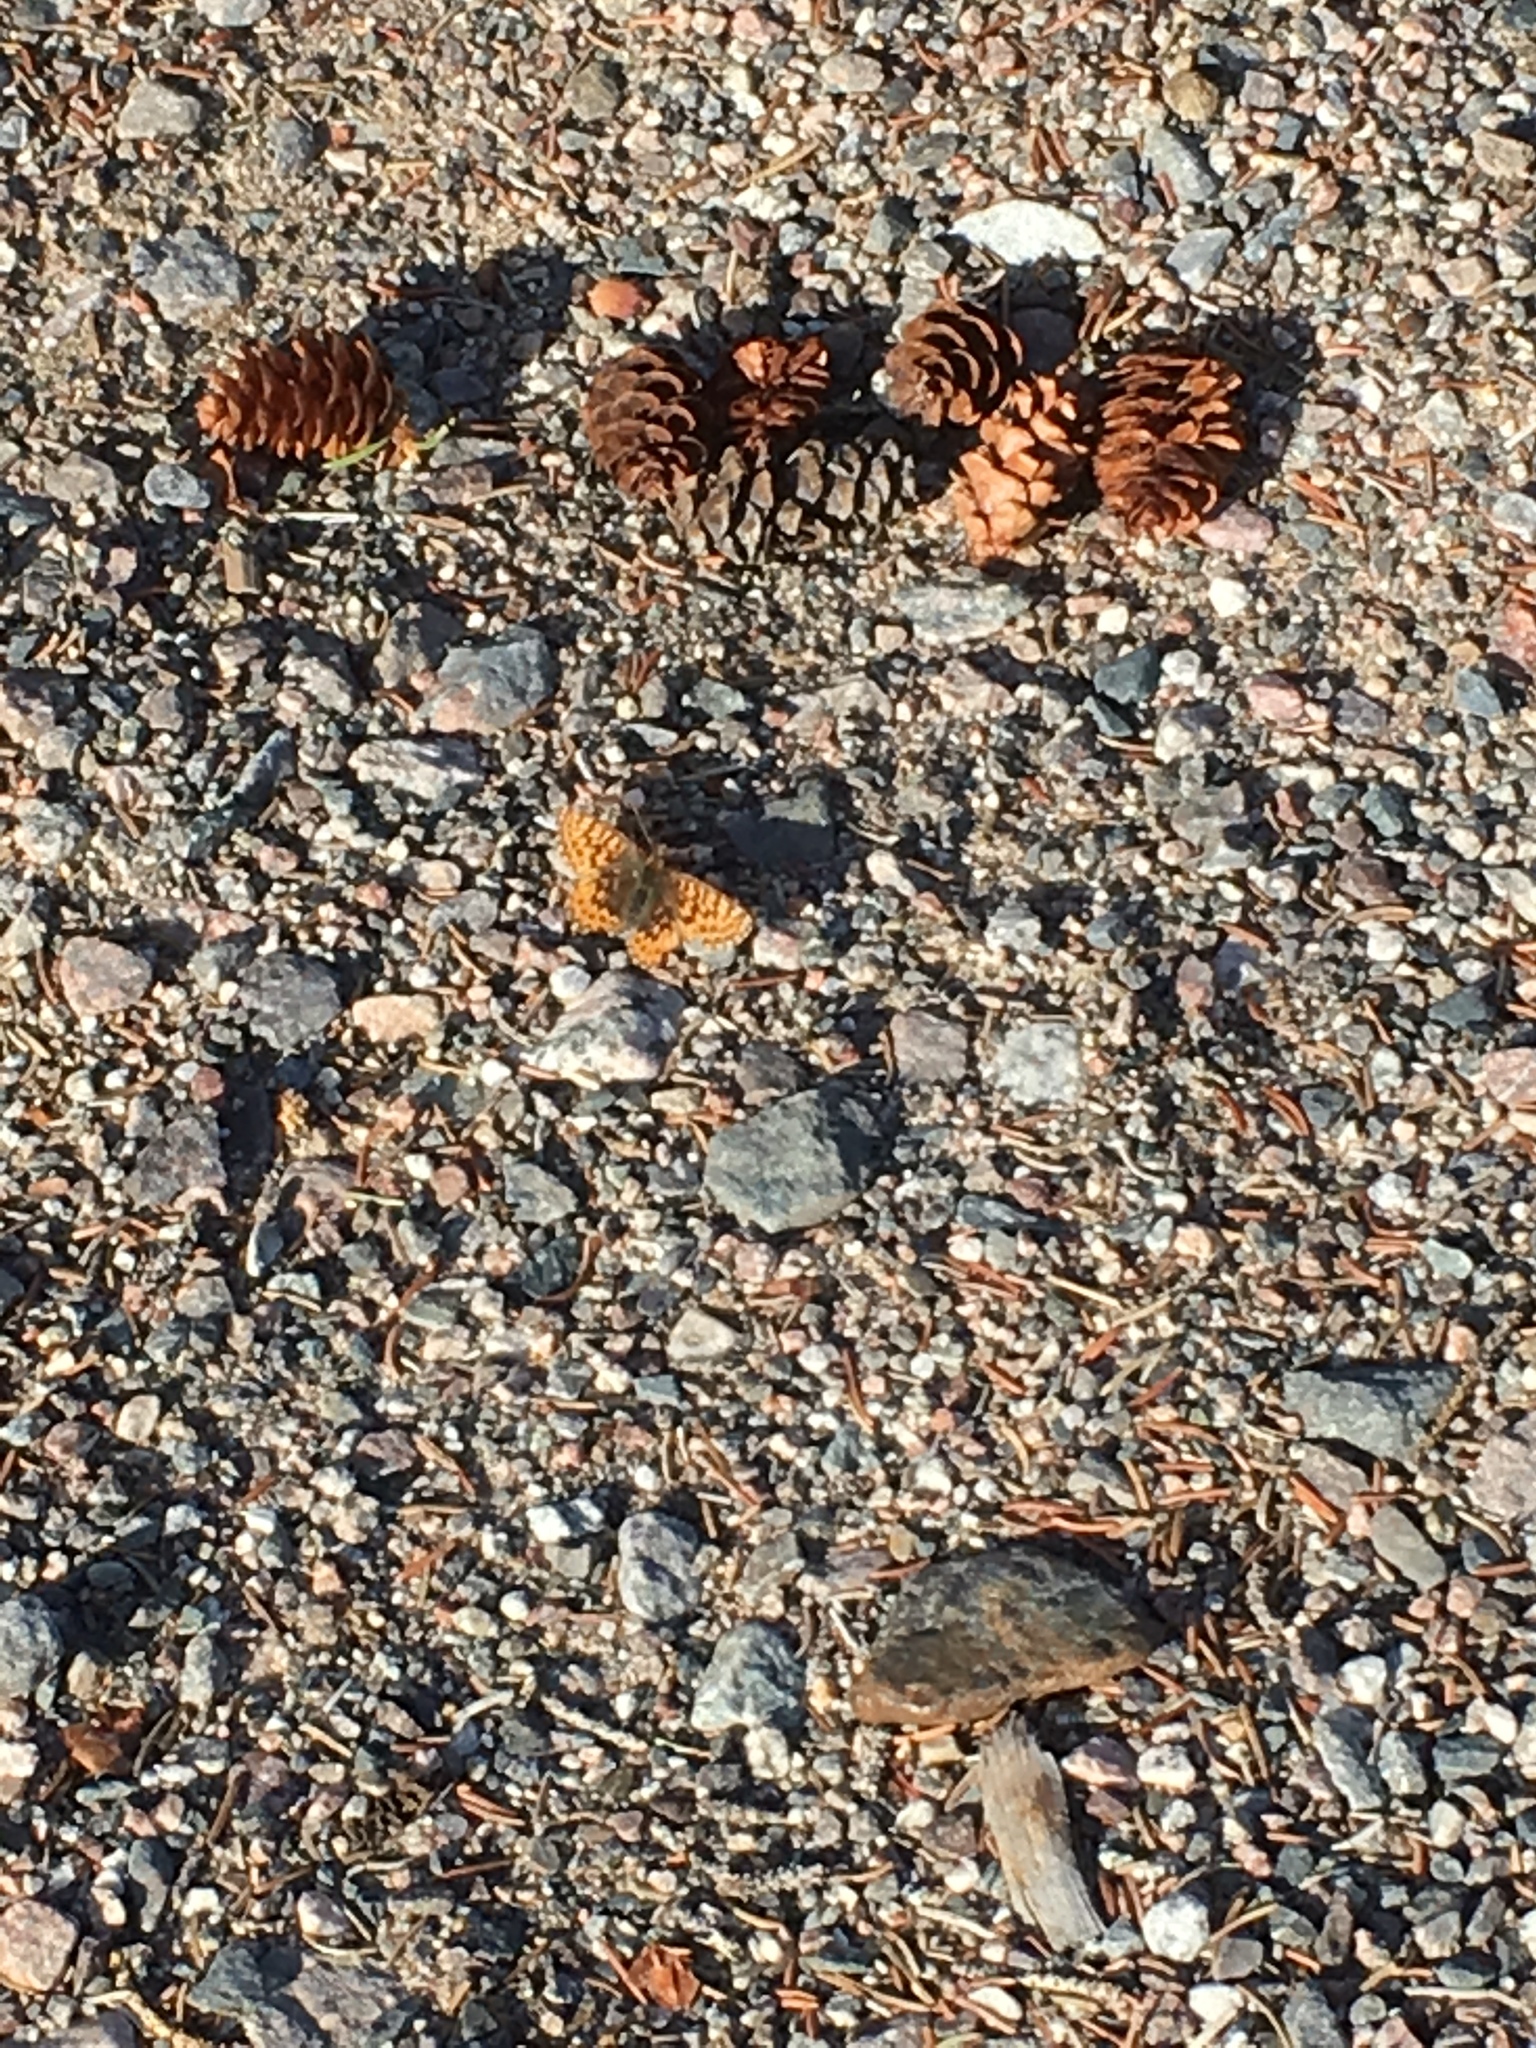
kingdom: Animalia
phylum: Arthropoda
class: Insecta
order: Lepidoptera
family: Nymphalidae
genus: Boloria
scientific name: Boloria freija
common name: Freija fritillary
